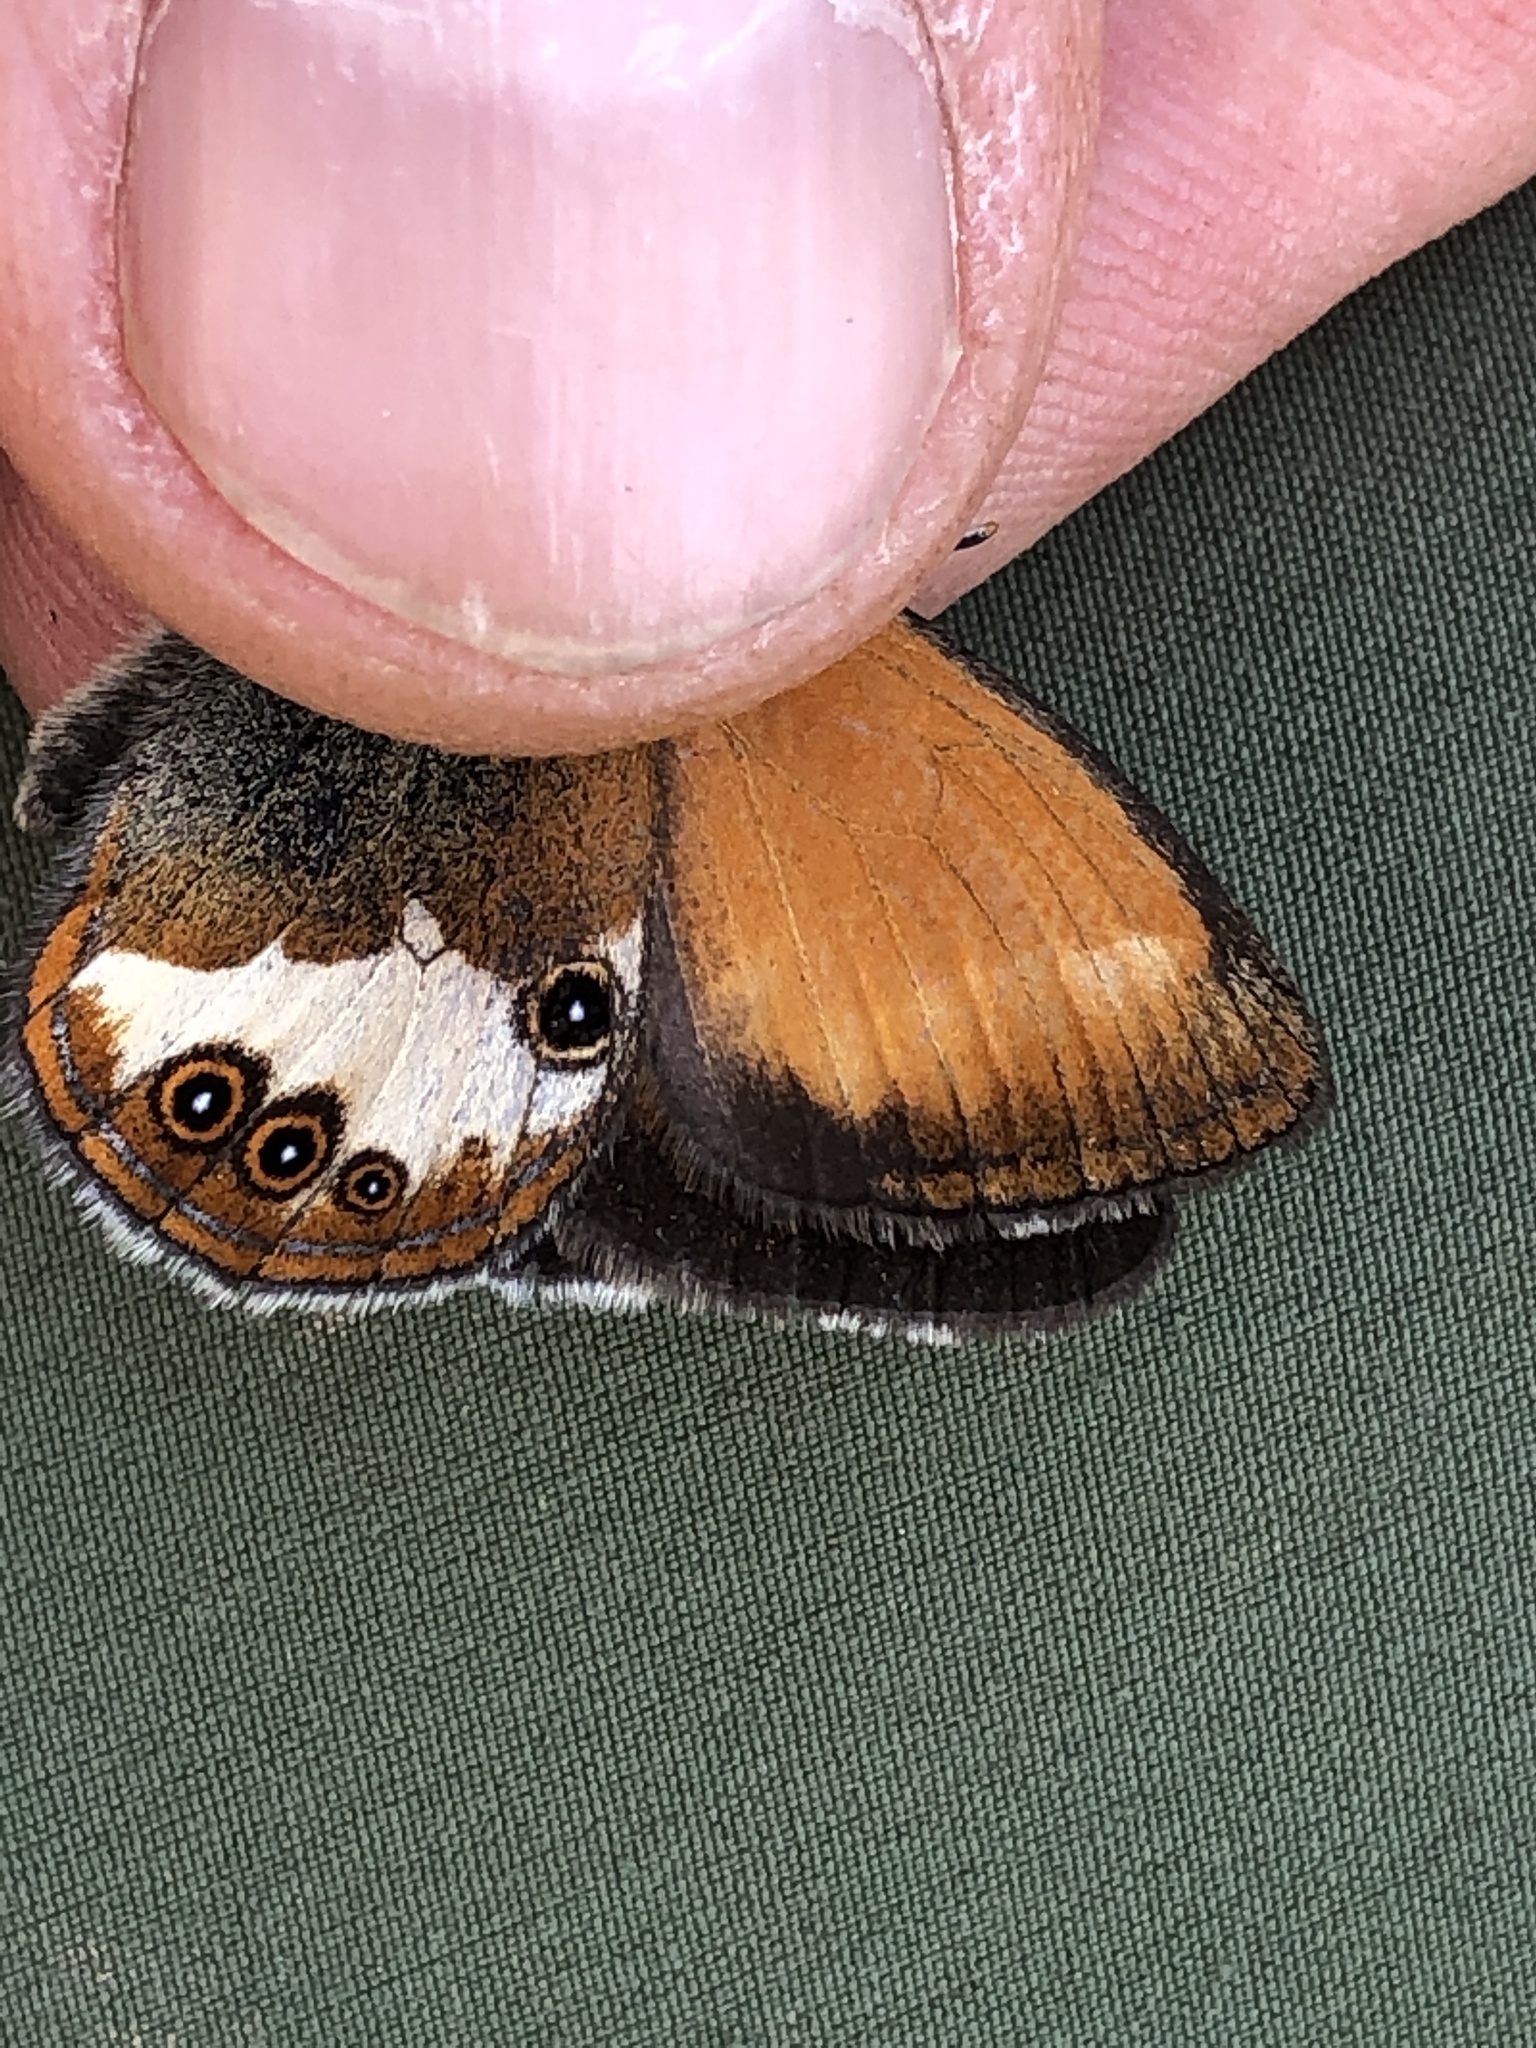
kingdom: Animalia
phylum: Arthropoda
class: Insecta
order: Lepidoptera
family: Nymphalidae
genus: Coenonympha
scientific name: Coenonympha arcania
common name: Pearly heath
